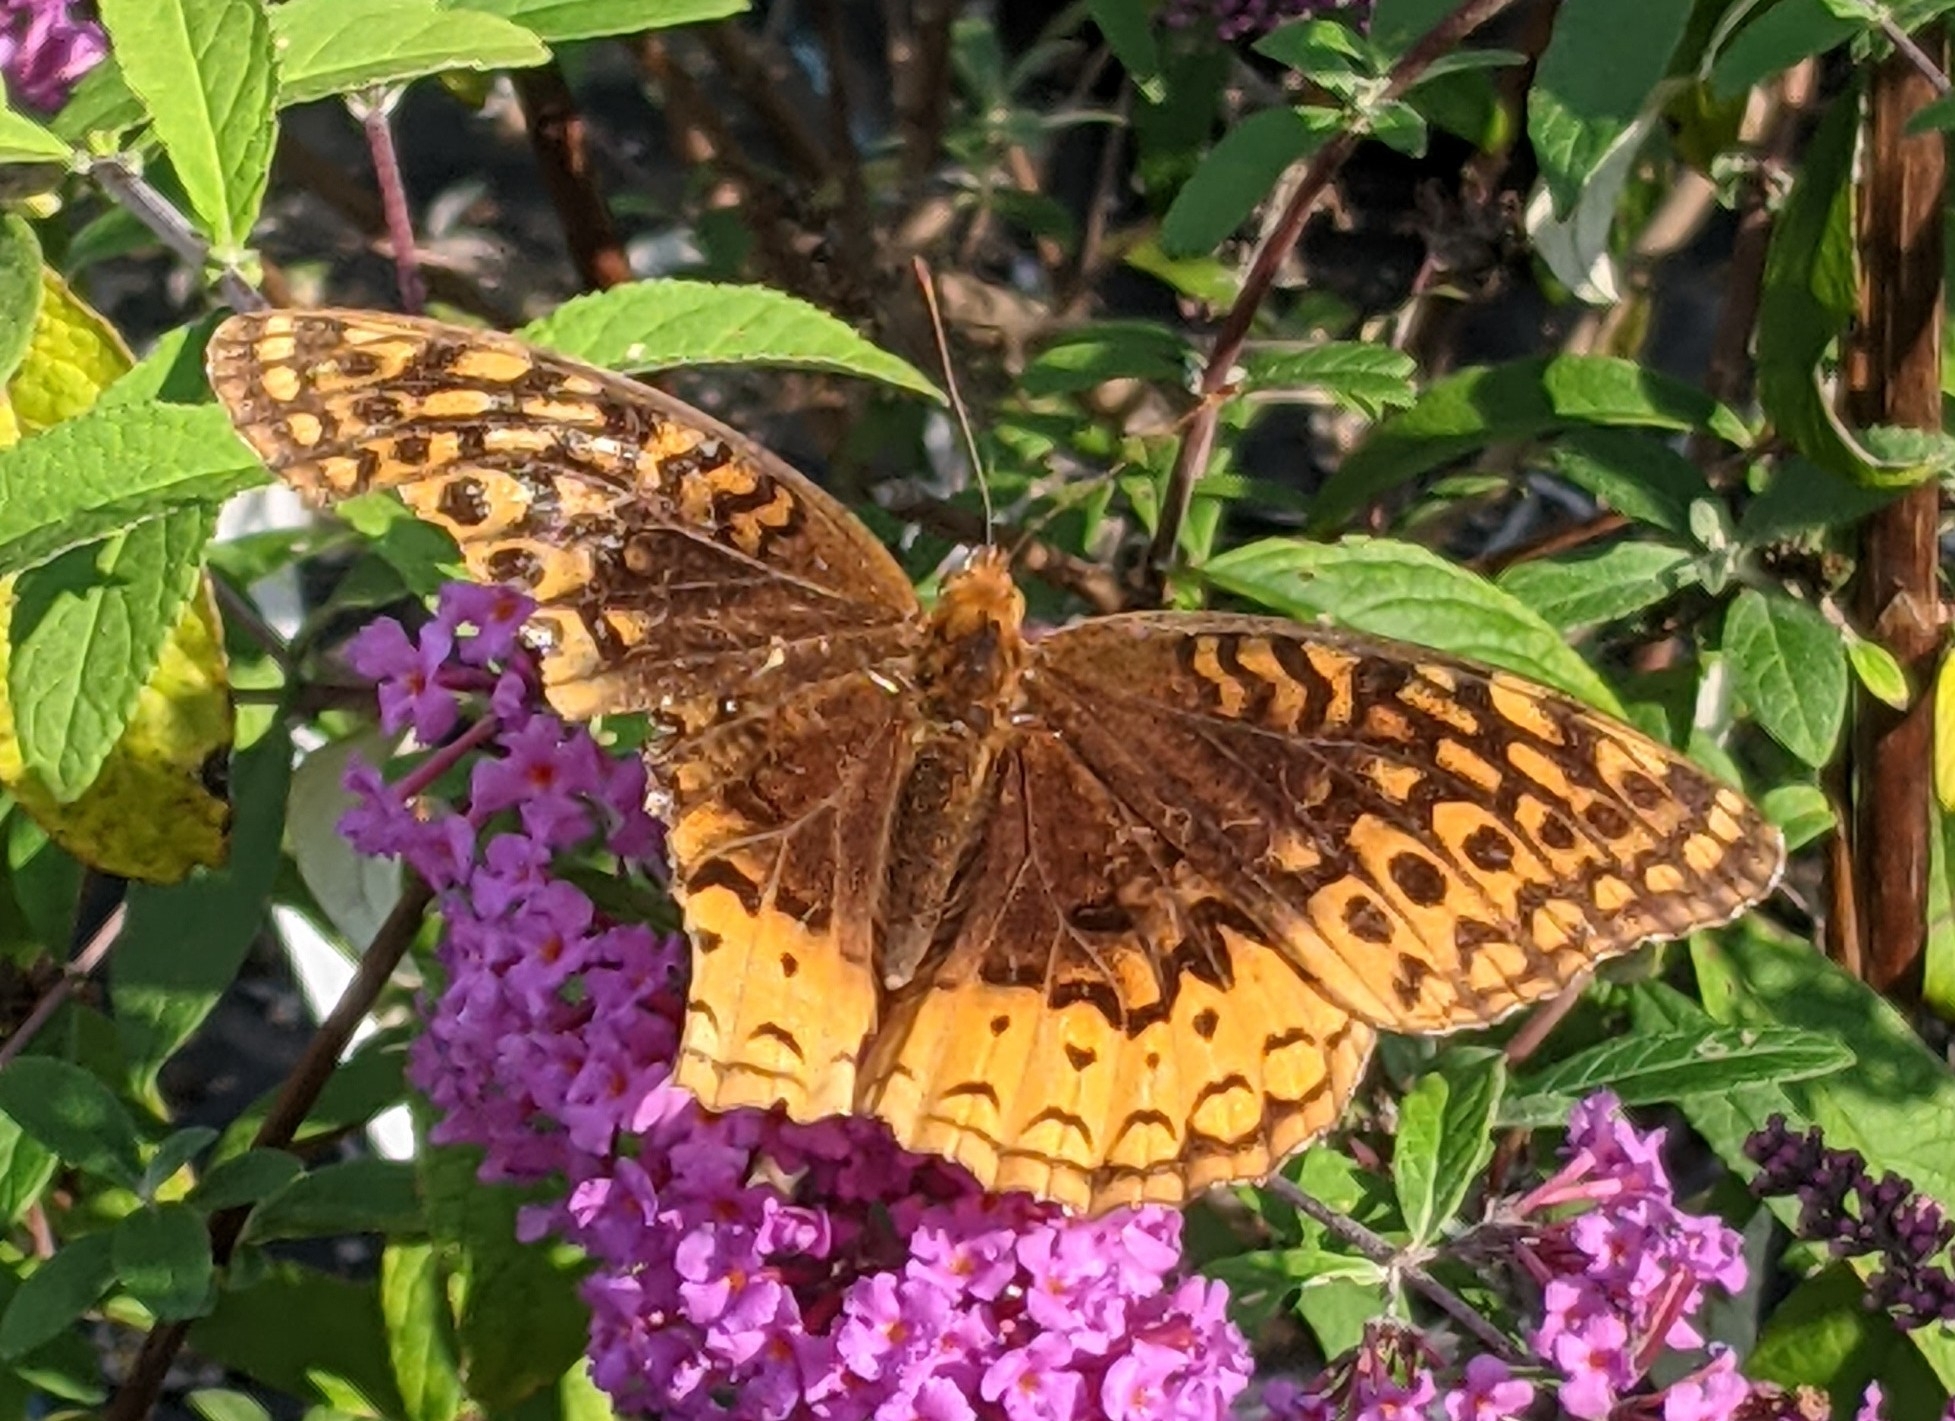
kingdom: Animalia
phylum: Arthropoda
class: Insecta
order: Lepidoptera
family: Nymphalidae
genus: Speyeria
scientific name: Speyeria cybele
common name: Great spangled fritillary
